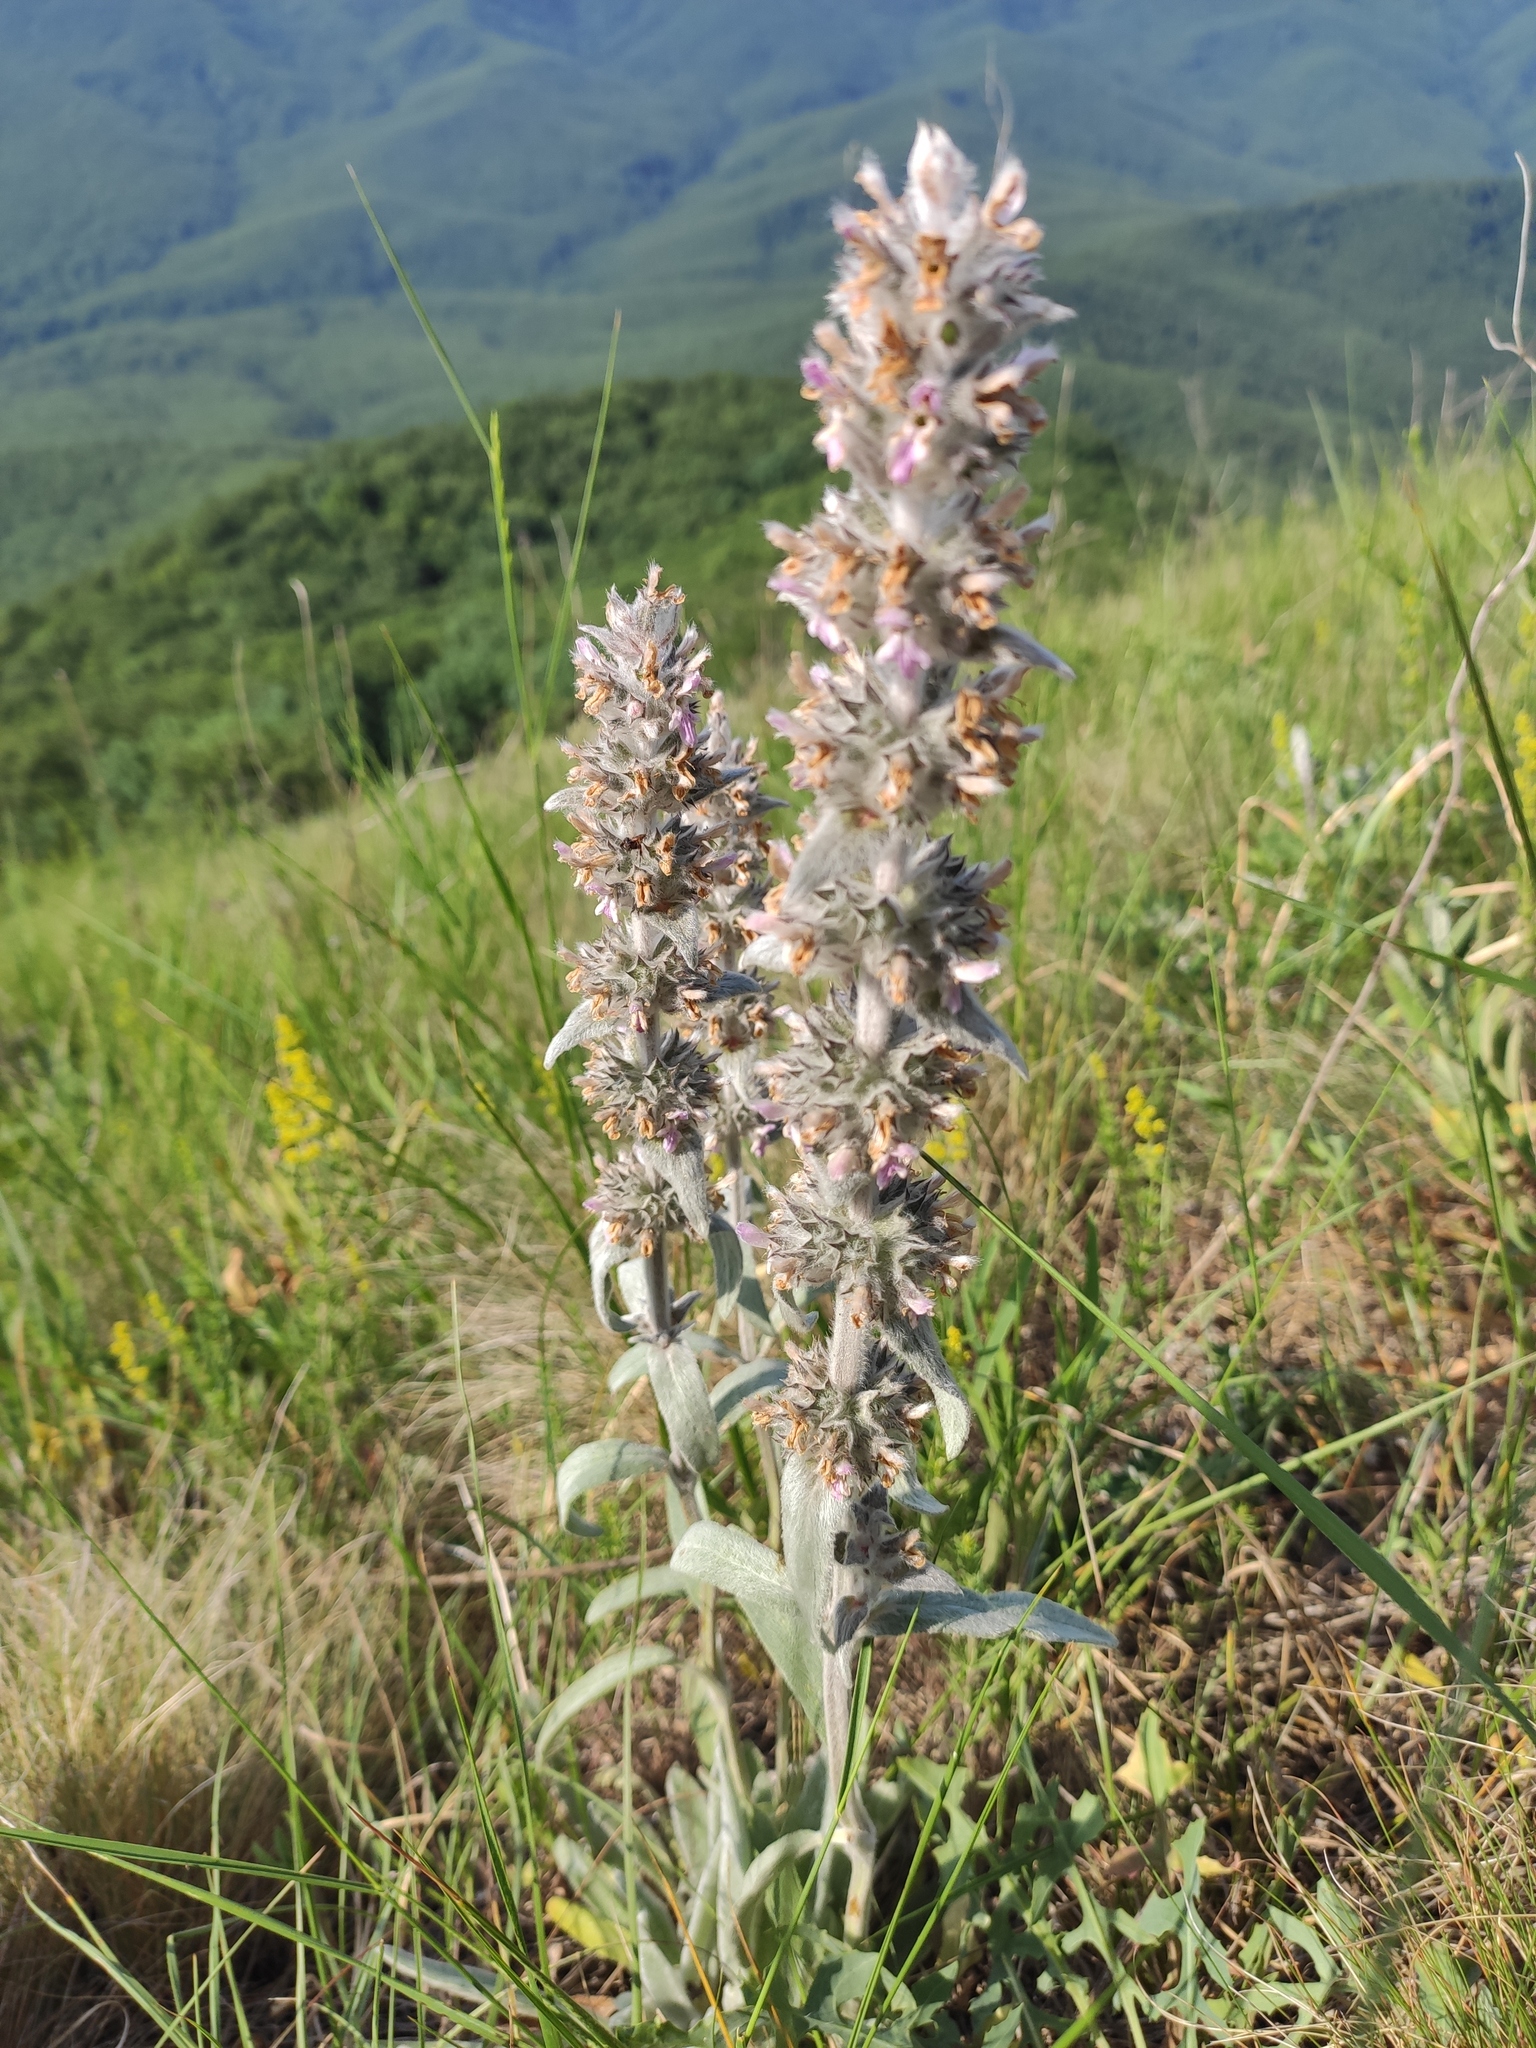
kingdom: Plantae
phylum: Tracheophyta
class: Magnoliopsida
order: Lamiales
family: Lamiaceae
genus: Stachys
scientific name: Stachys cretica
